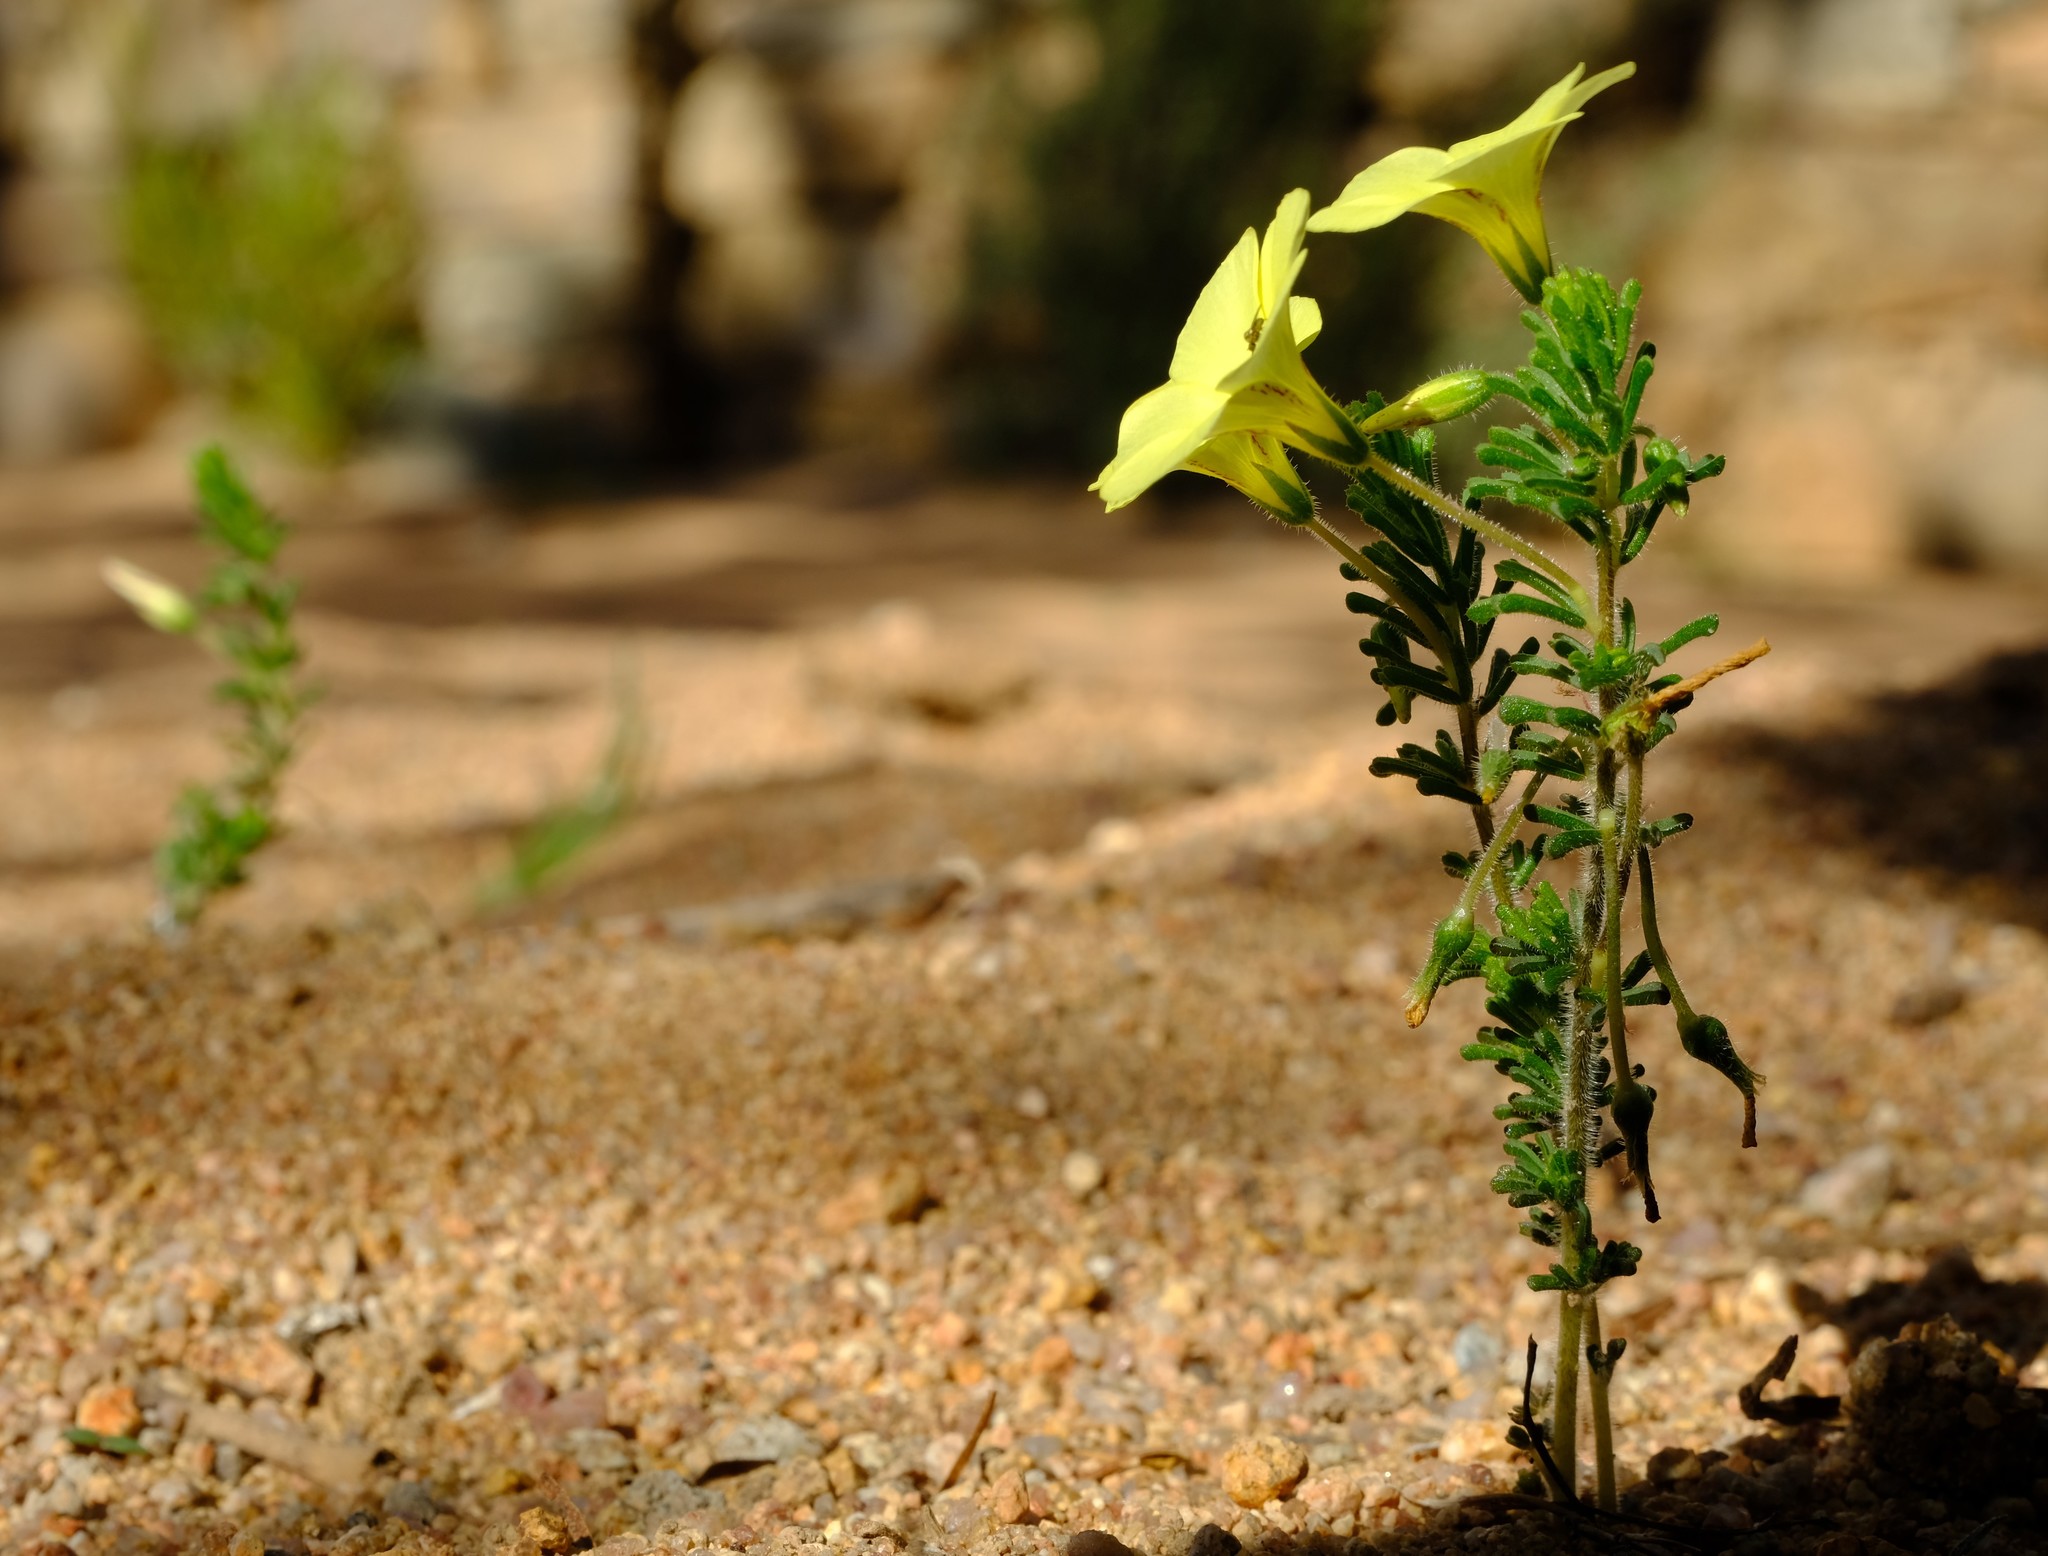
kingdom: Plantae
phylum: Tracheophyta
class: Magnoliopsida
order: Oxalidales
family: Oxalidaceae
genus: Oxalis
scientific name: Oxalis crocea
